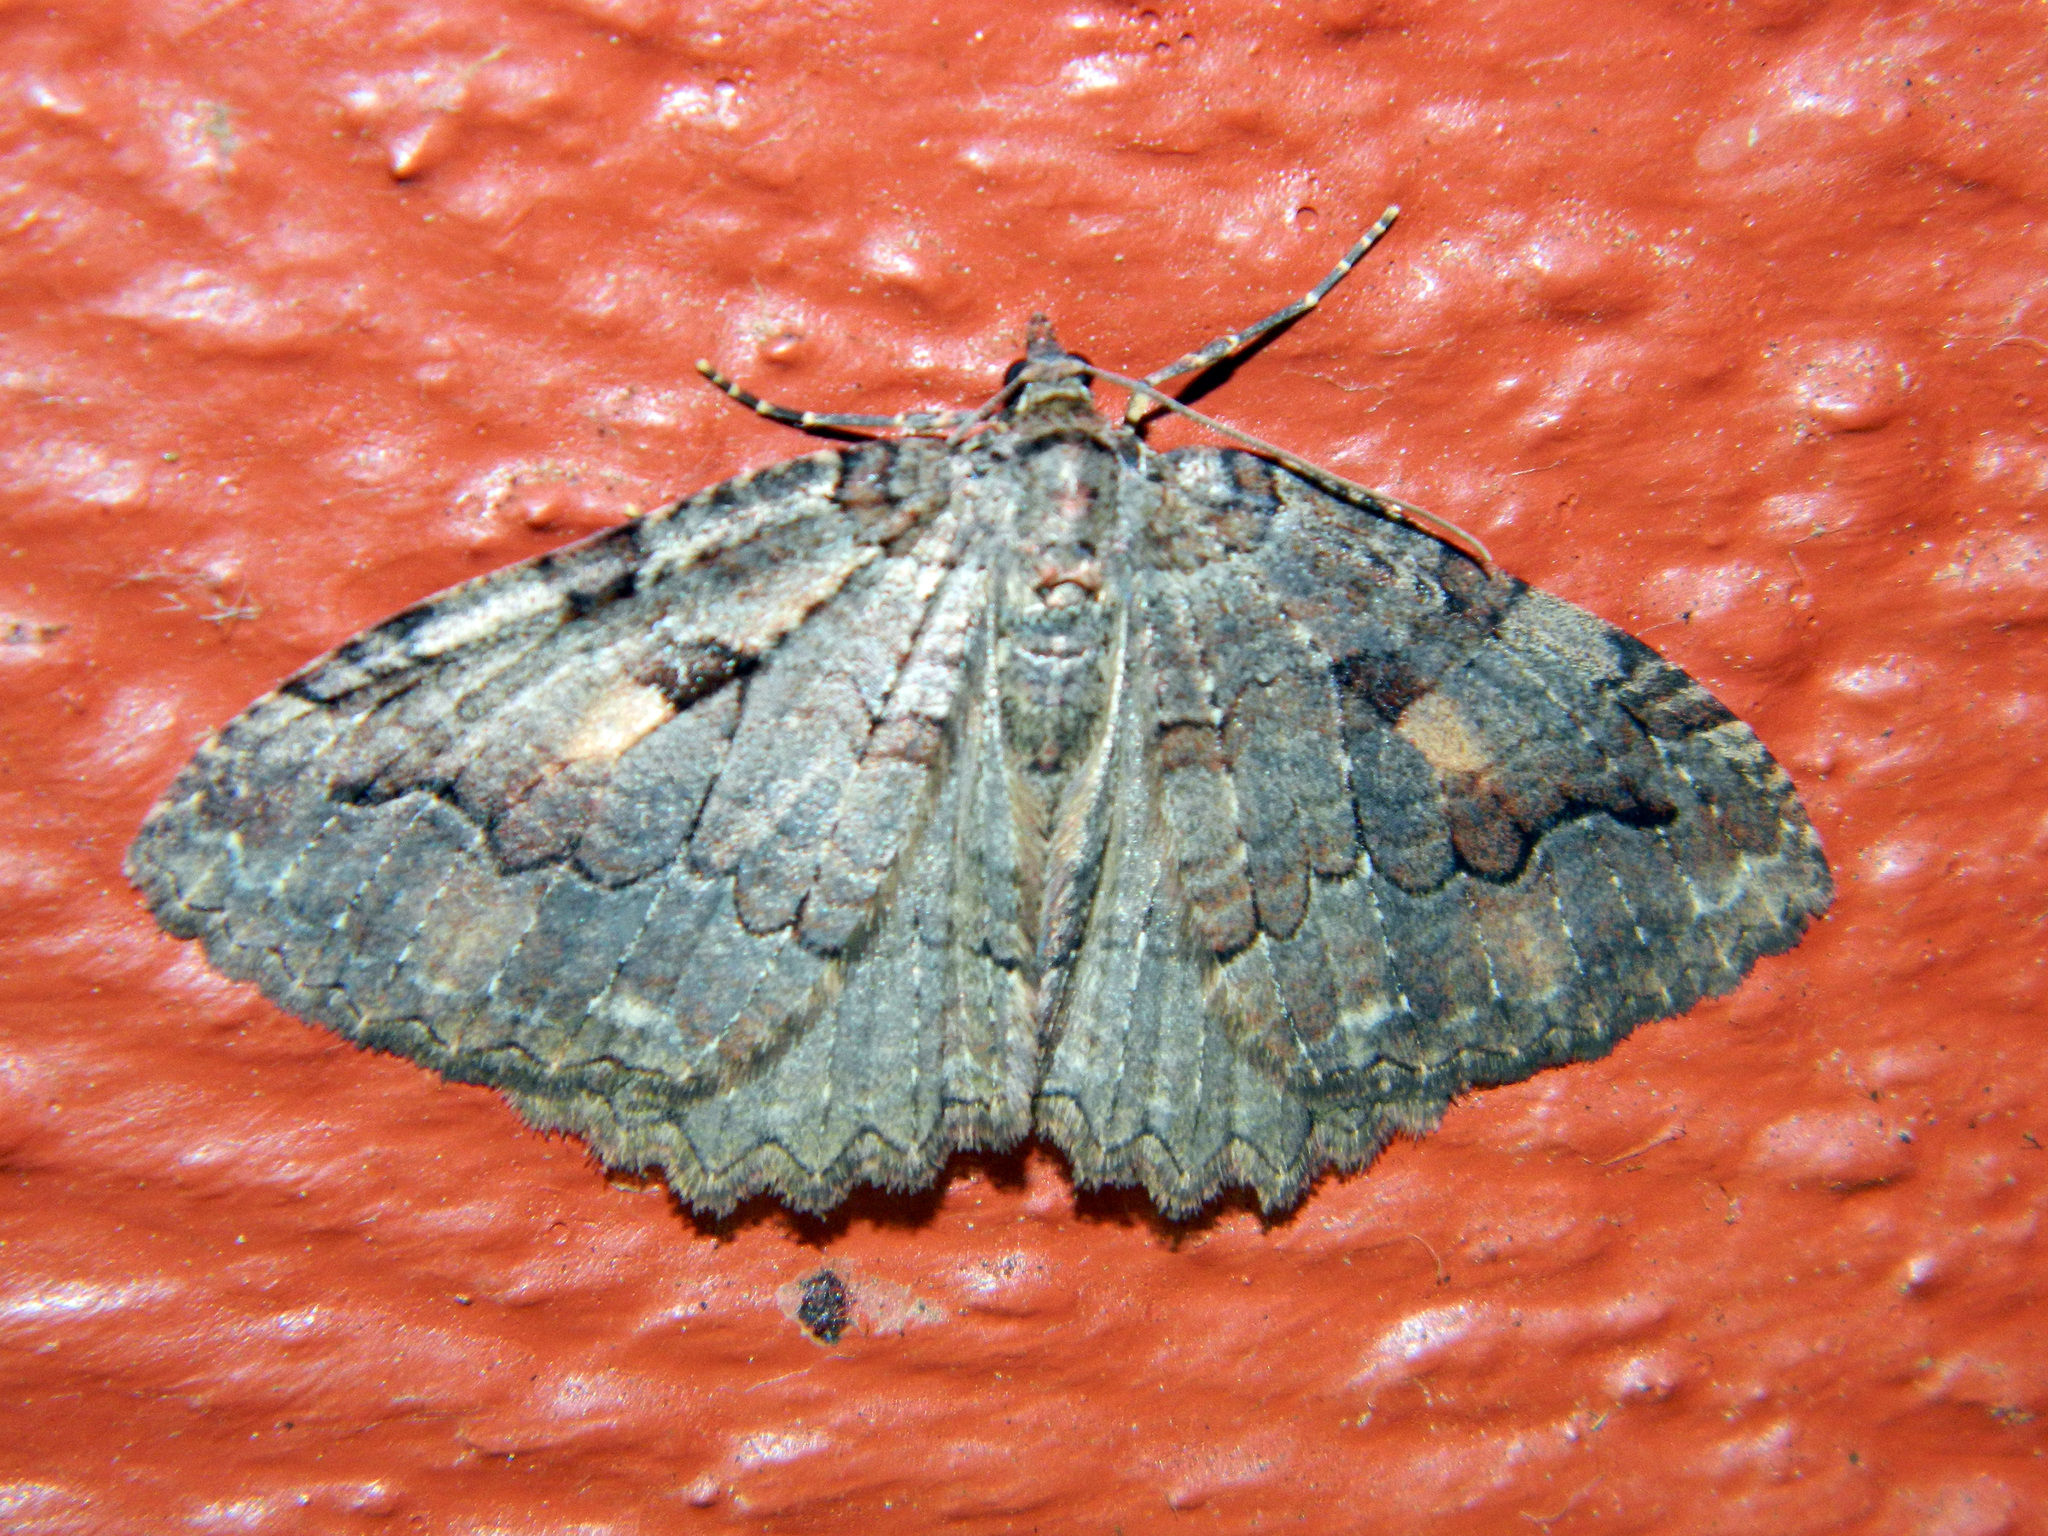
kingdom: Animalia
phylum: Arthropoda
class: Insecta
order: Lepidoptera
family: Geometridae
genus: Triphosa
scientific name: Triphosa haesitata
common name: Tissue moth
